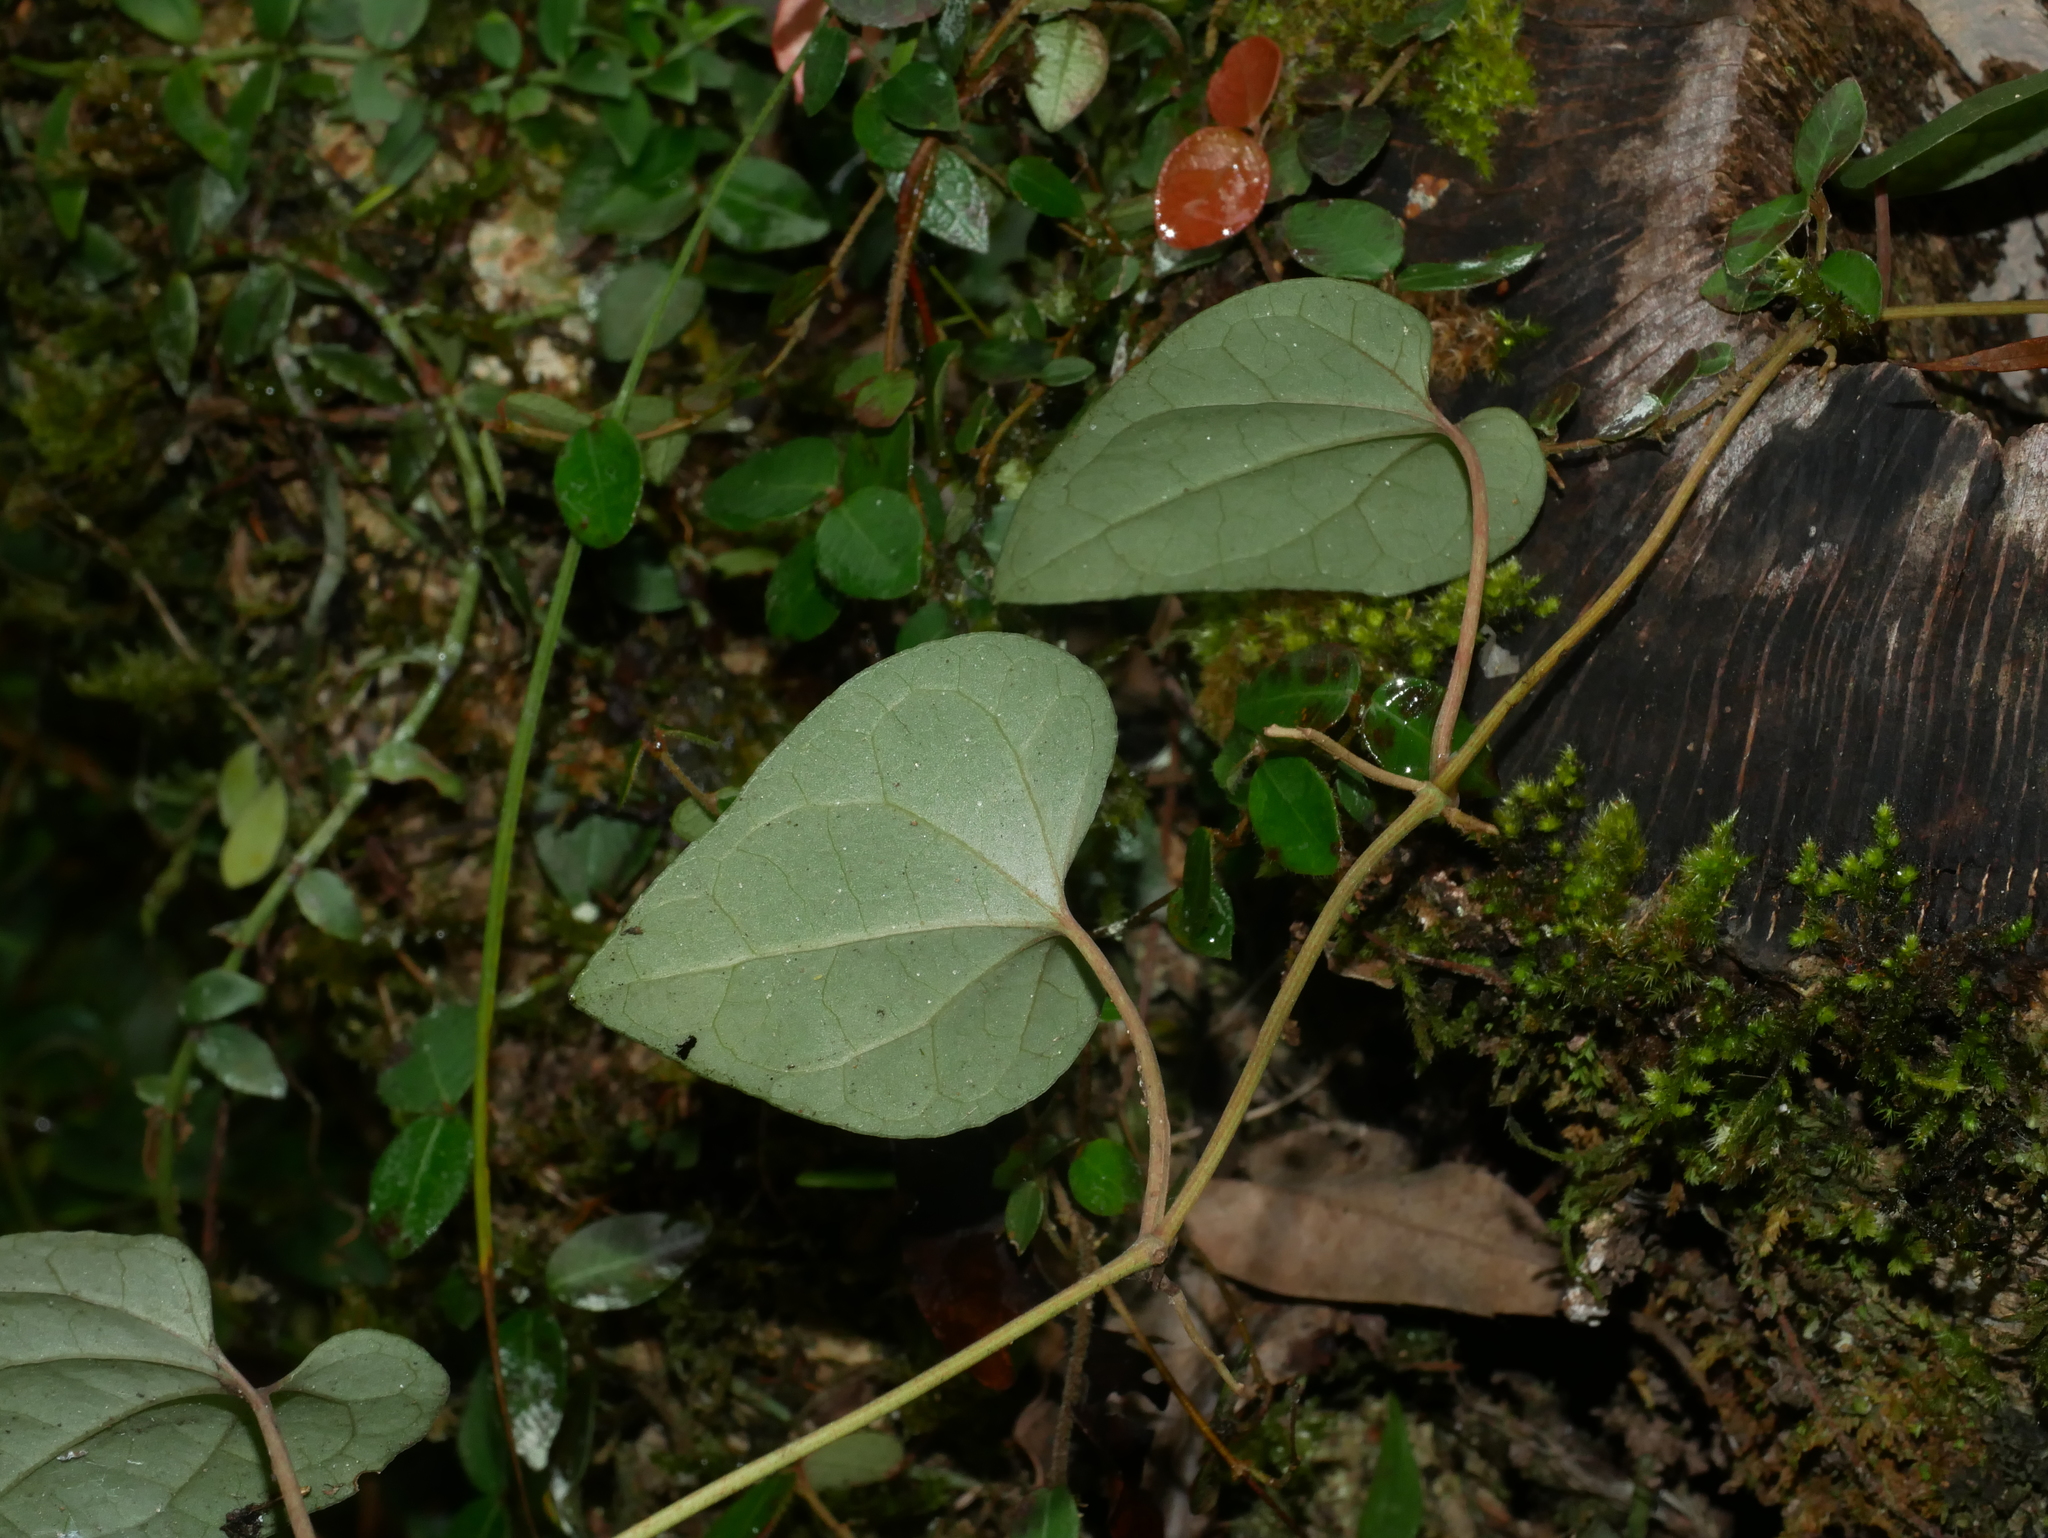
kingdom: Plantae
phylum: Tracheophyta
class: Magnoliopsida
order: Piperales
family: Piperaceae
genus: Piper
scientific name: Piper taiwanense
